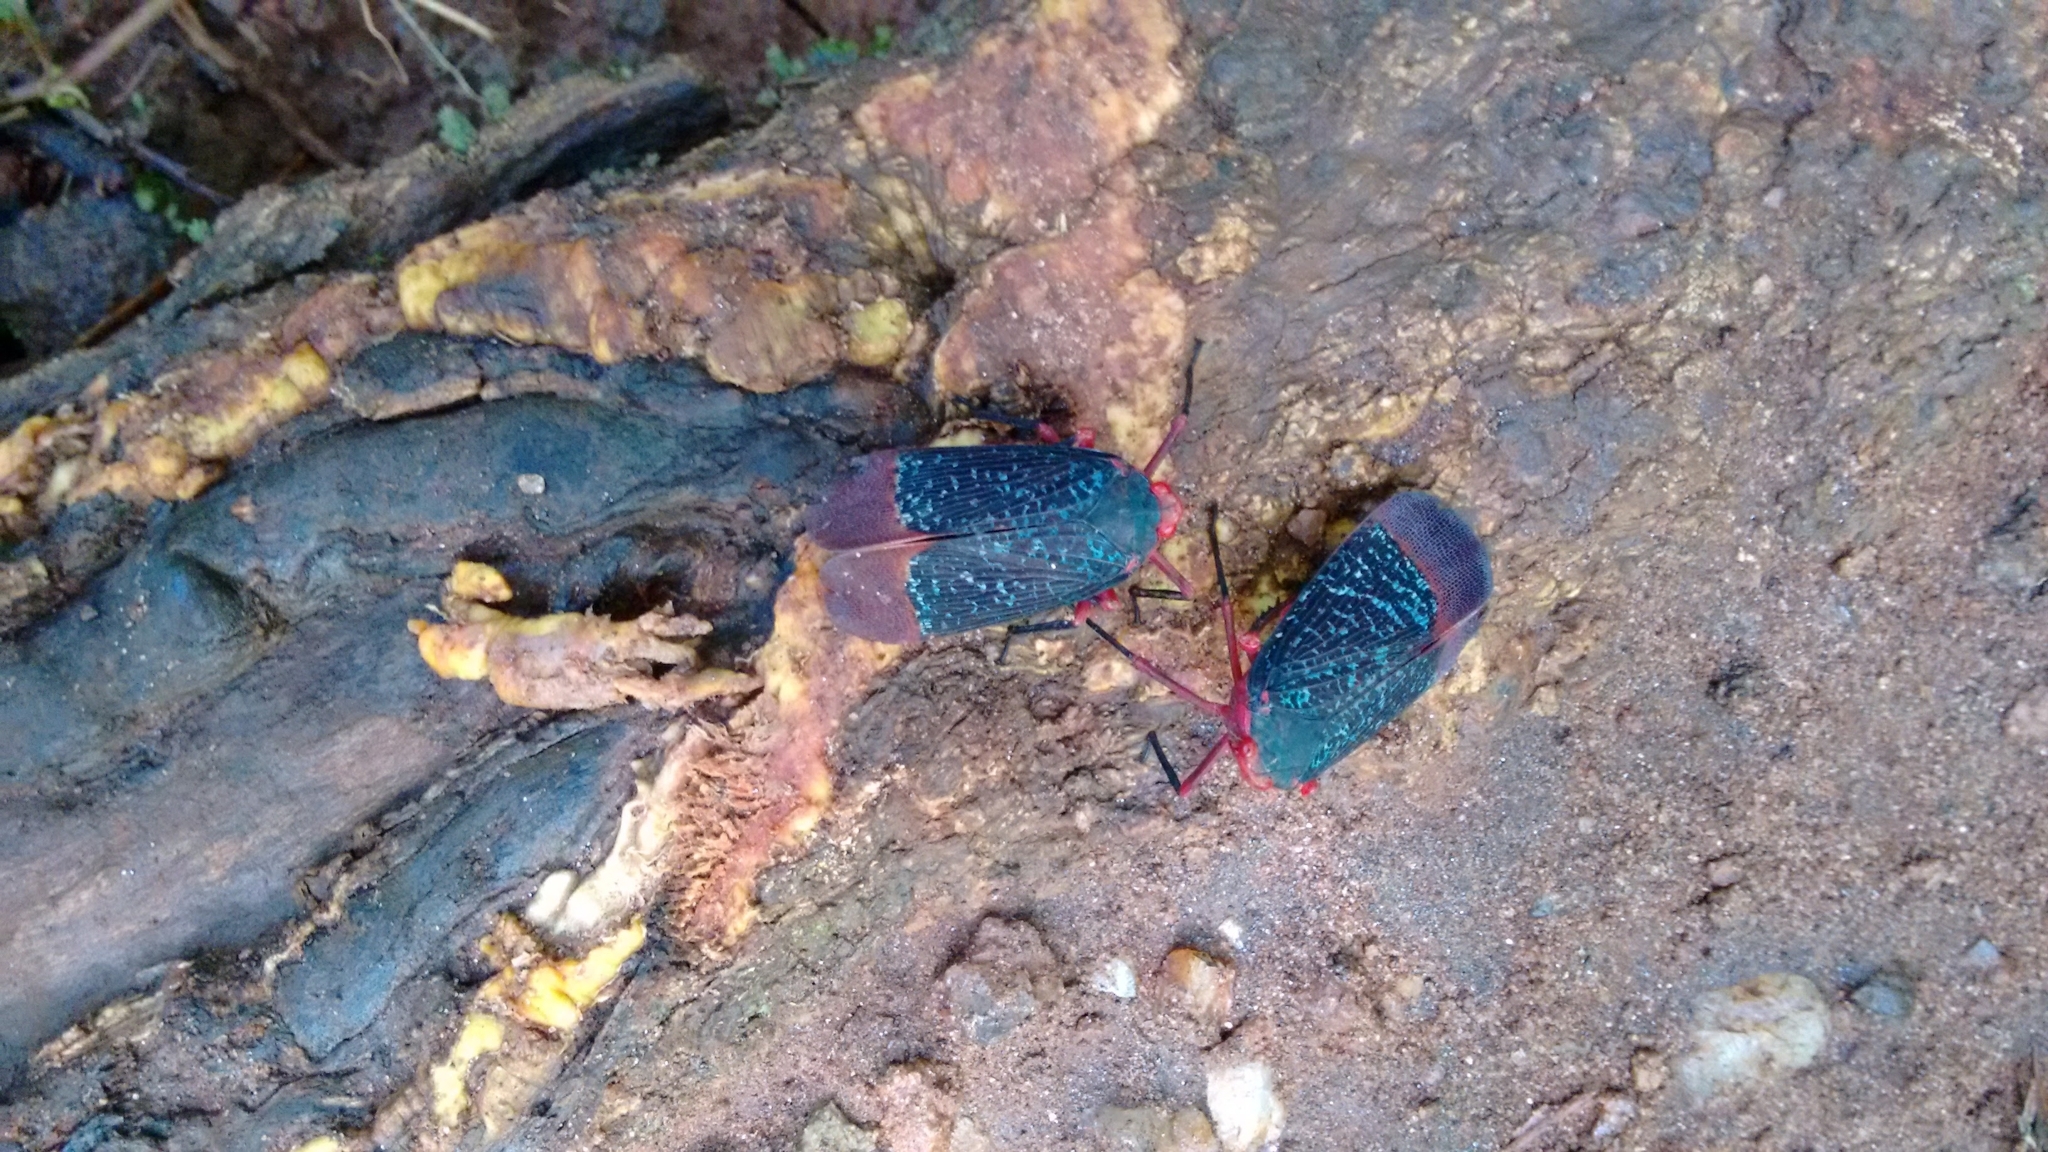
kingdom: Animalia
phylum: Arthropoda
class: Insecta
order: Hemiptera
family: Fulgoridae
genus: Kalidasa
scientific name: Kalidasa lanata
